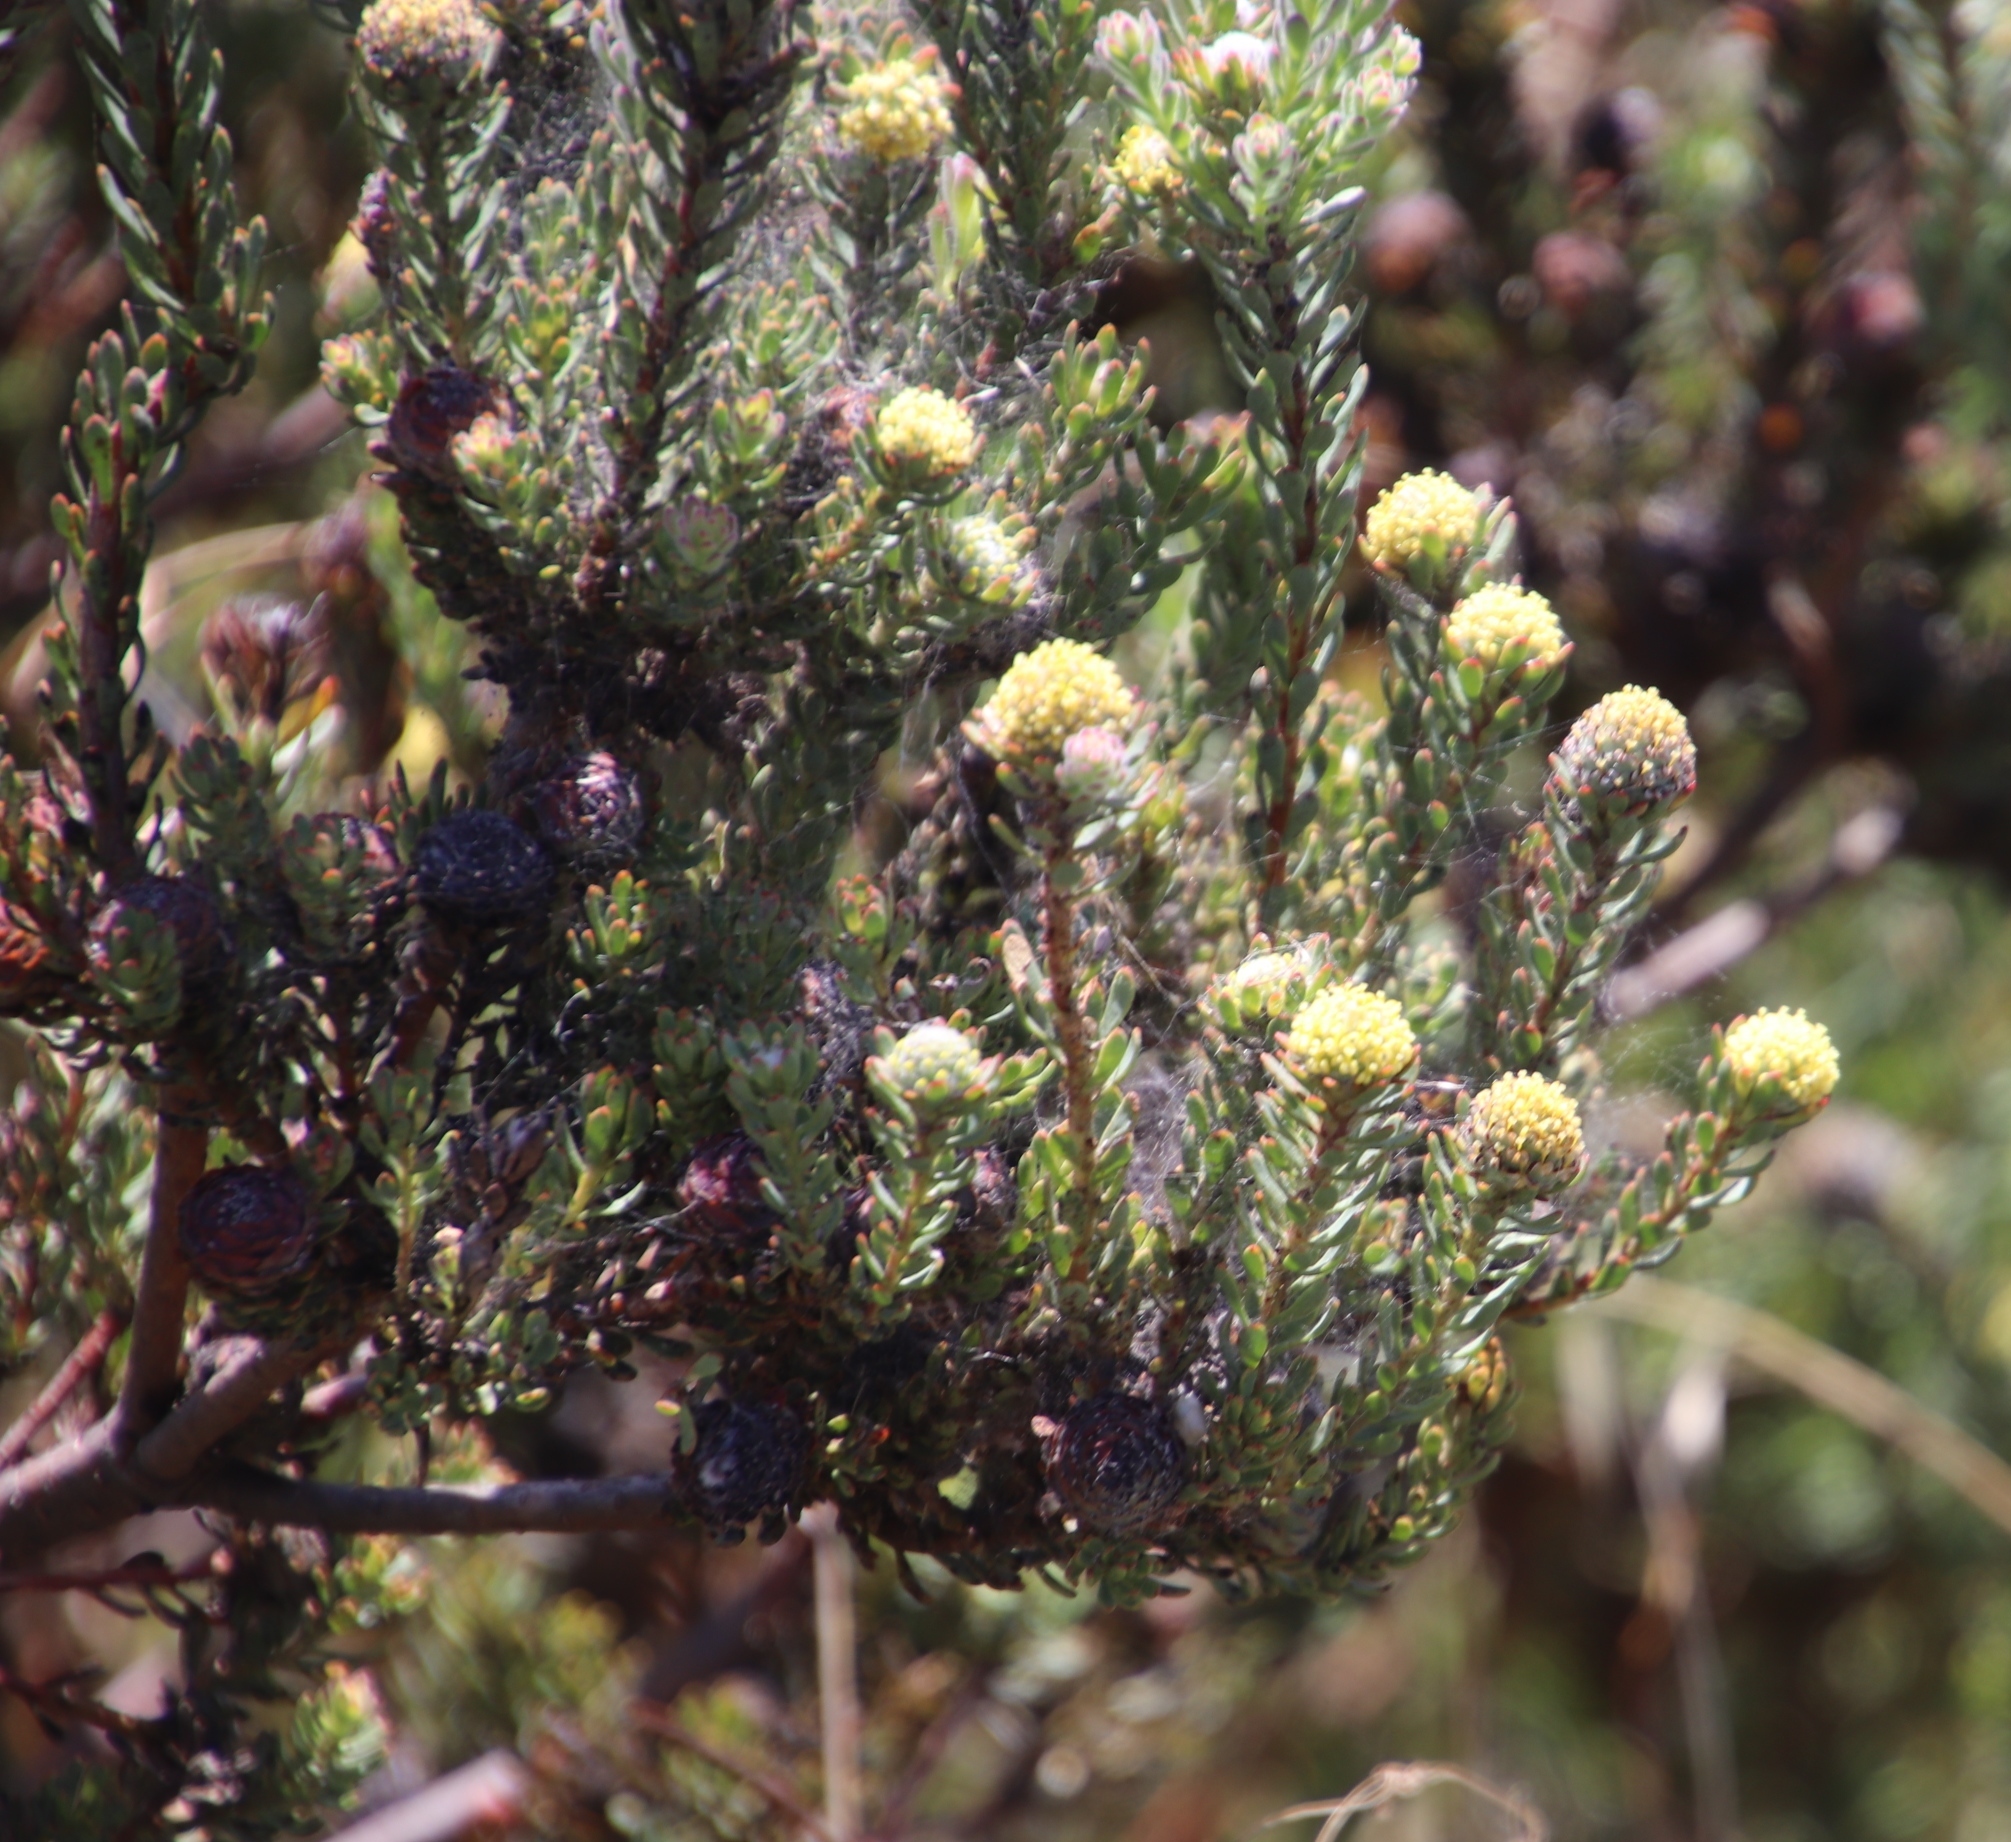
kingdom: Plantae
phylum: Tracheophyta
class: Magnoliopsida
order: Proteales
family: Proteaceae
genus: Leucadendron
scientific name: Leucadendron levisanus
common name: Cape flats conebush
